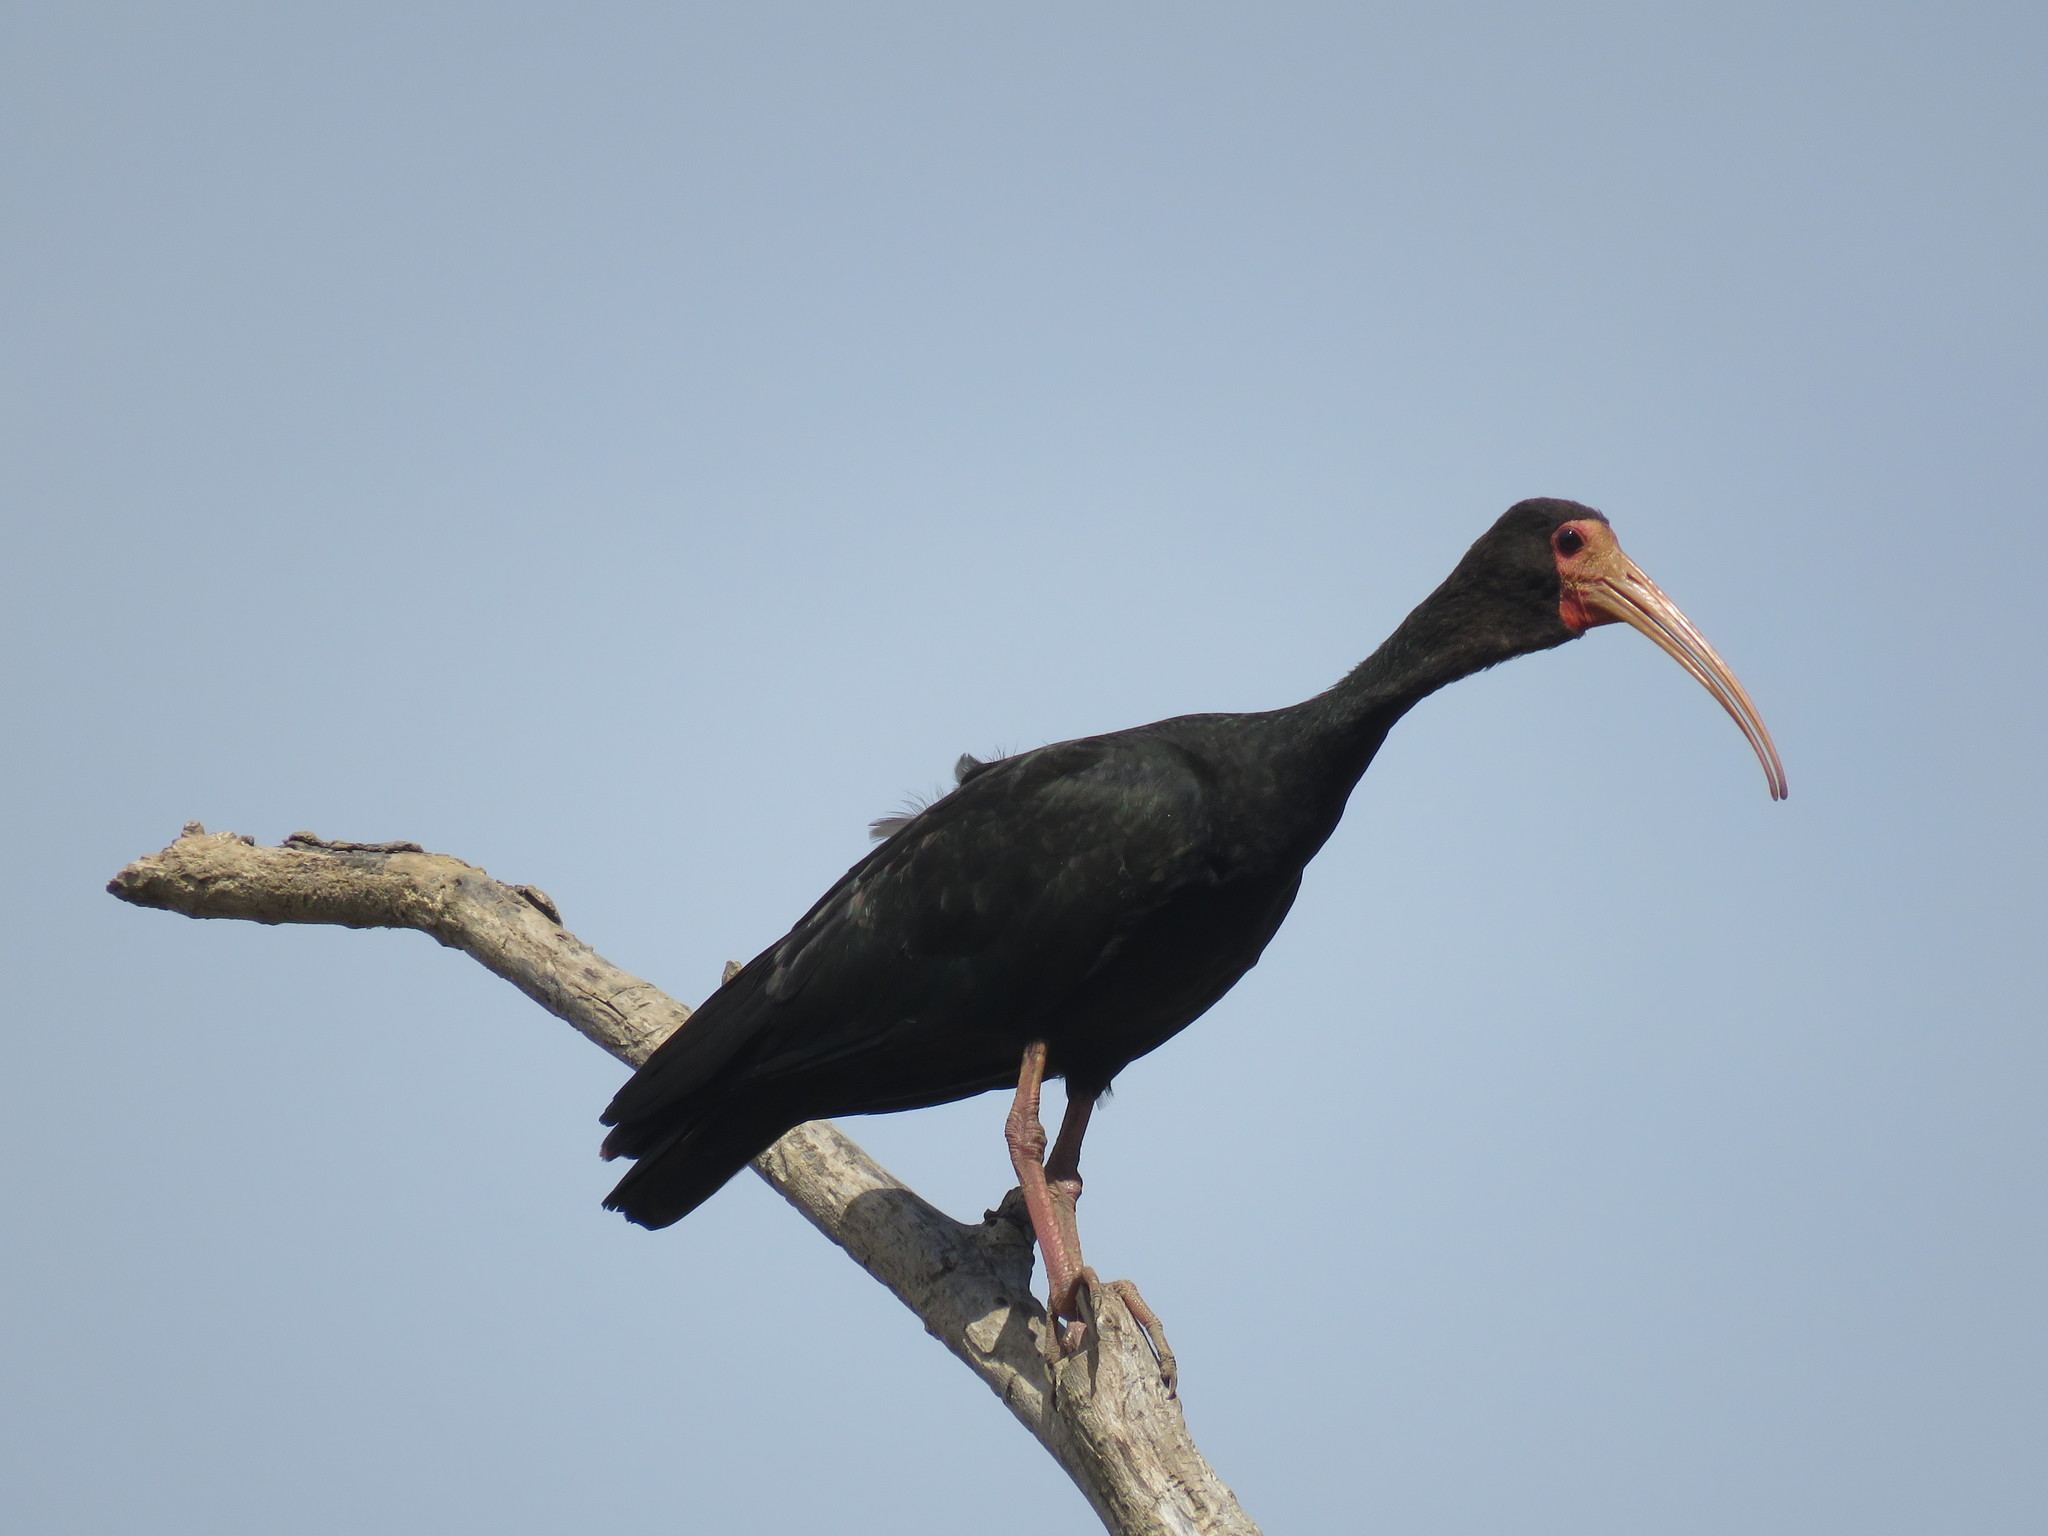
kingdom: Animalia
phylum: Chordata
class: Aves
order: Pelecaniformes
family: Threskiornithidae
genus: Phimosus
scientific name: Phimosus infuscatus
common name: Bare-faced ibis
